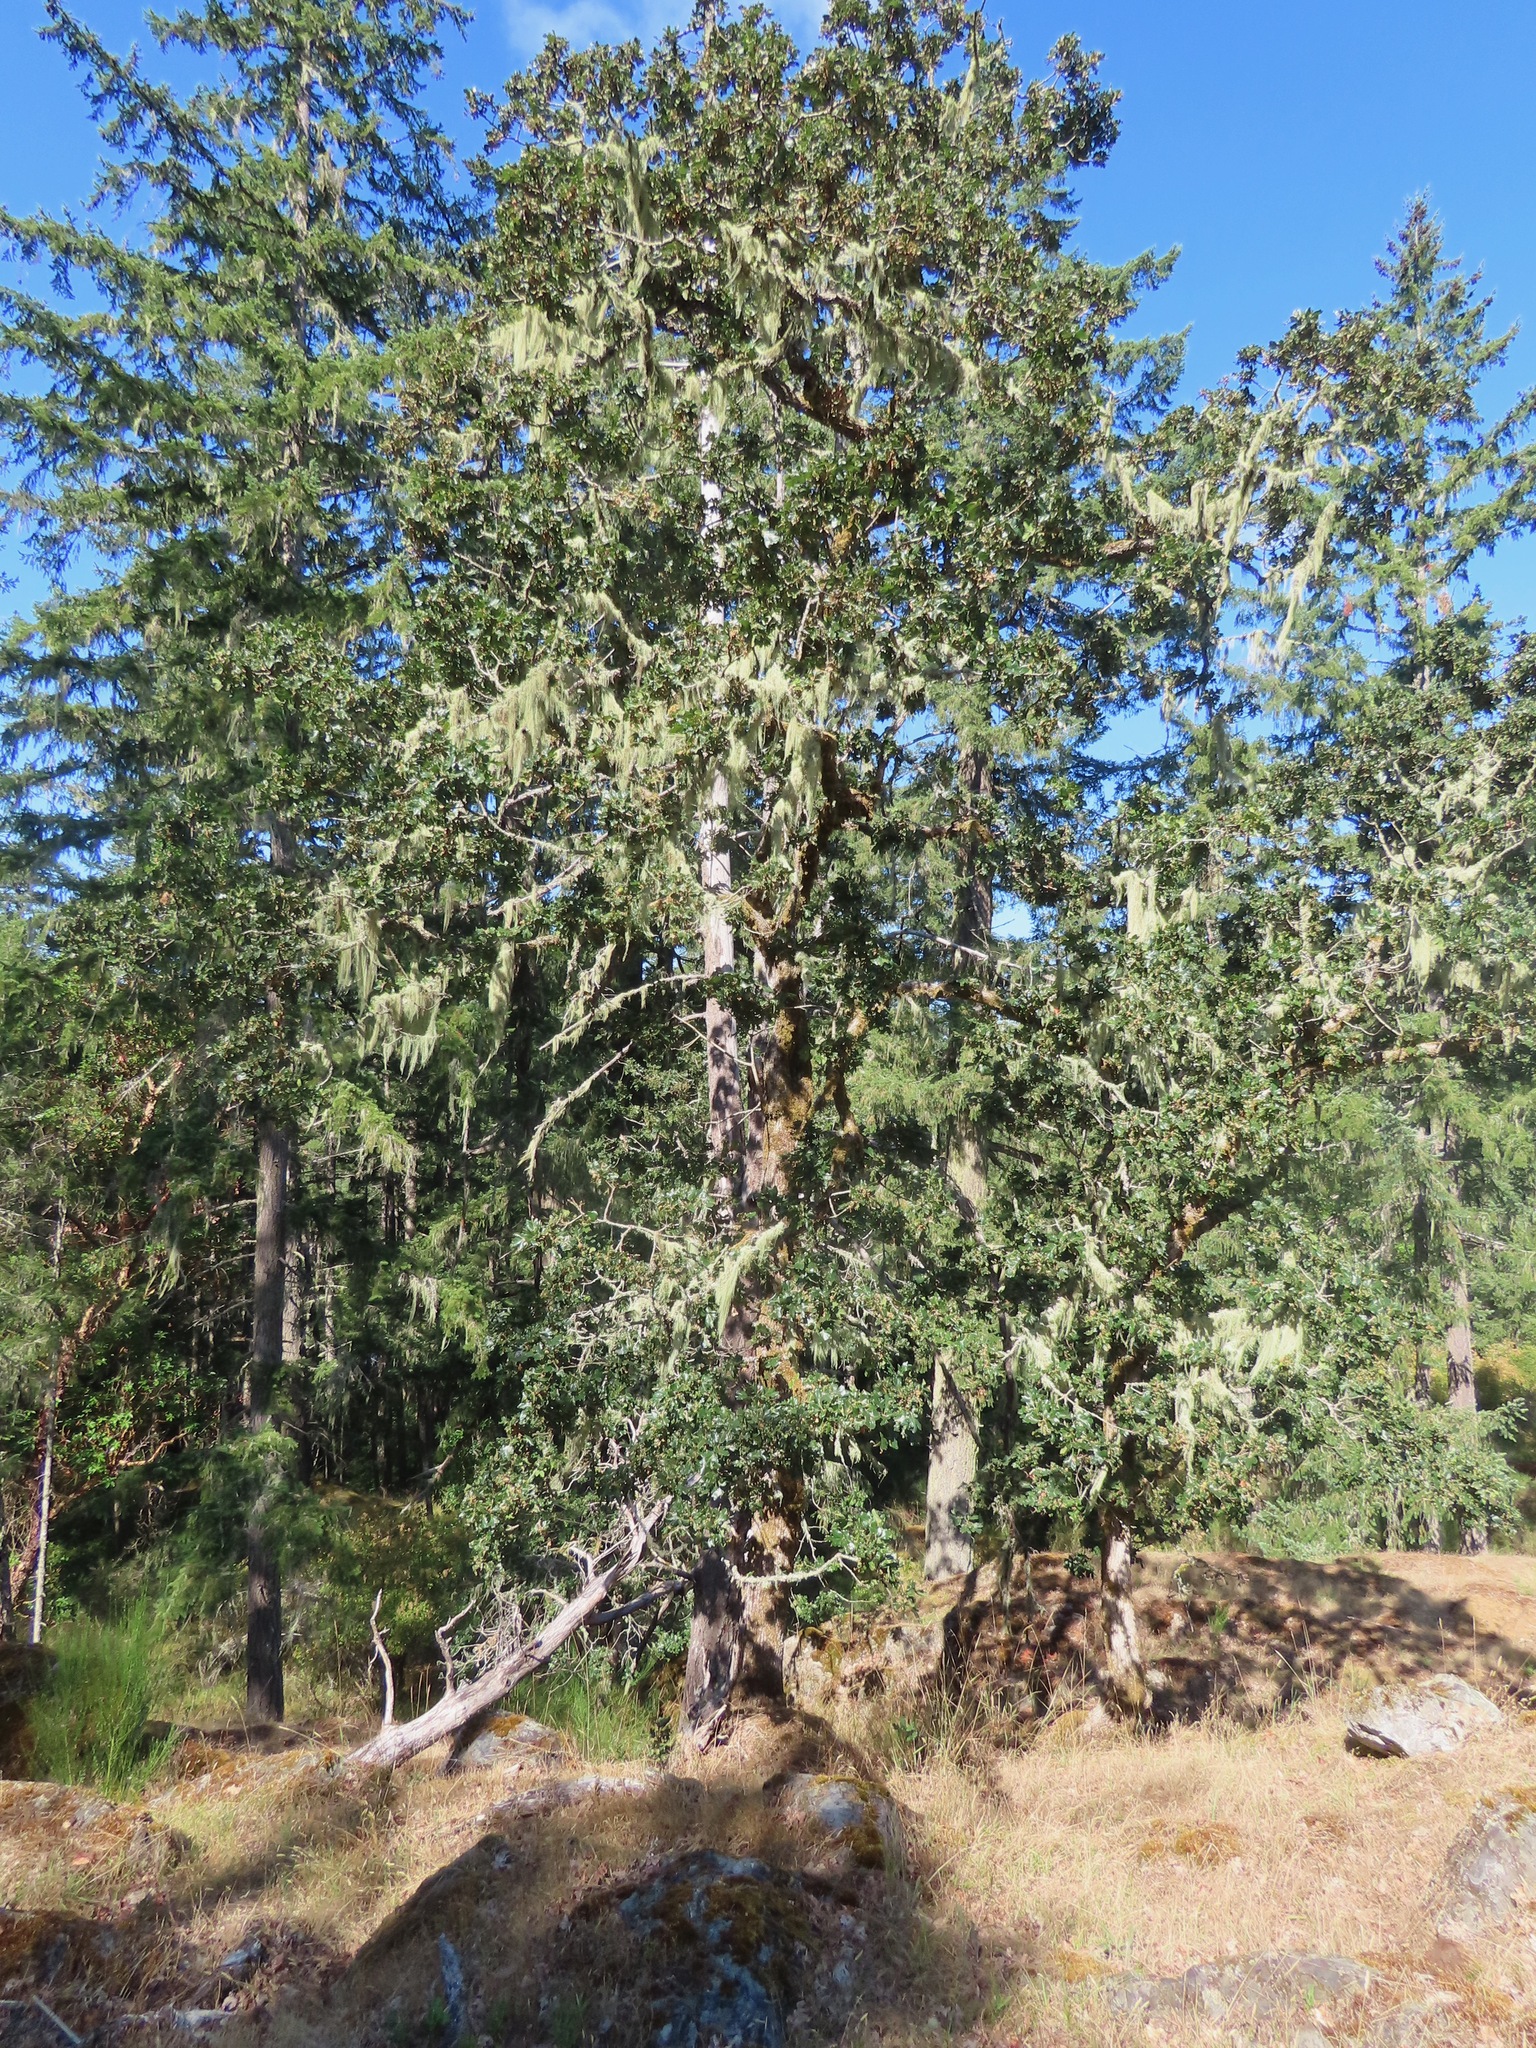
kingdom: Plantae
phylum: Tracheophyta
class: Magnoliopsida
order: Fagales
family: Fagaceae
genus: Quercus
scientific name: Quercus garryana
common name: Garry oak
